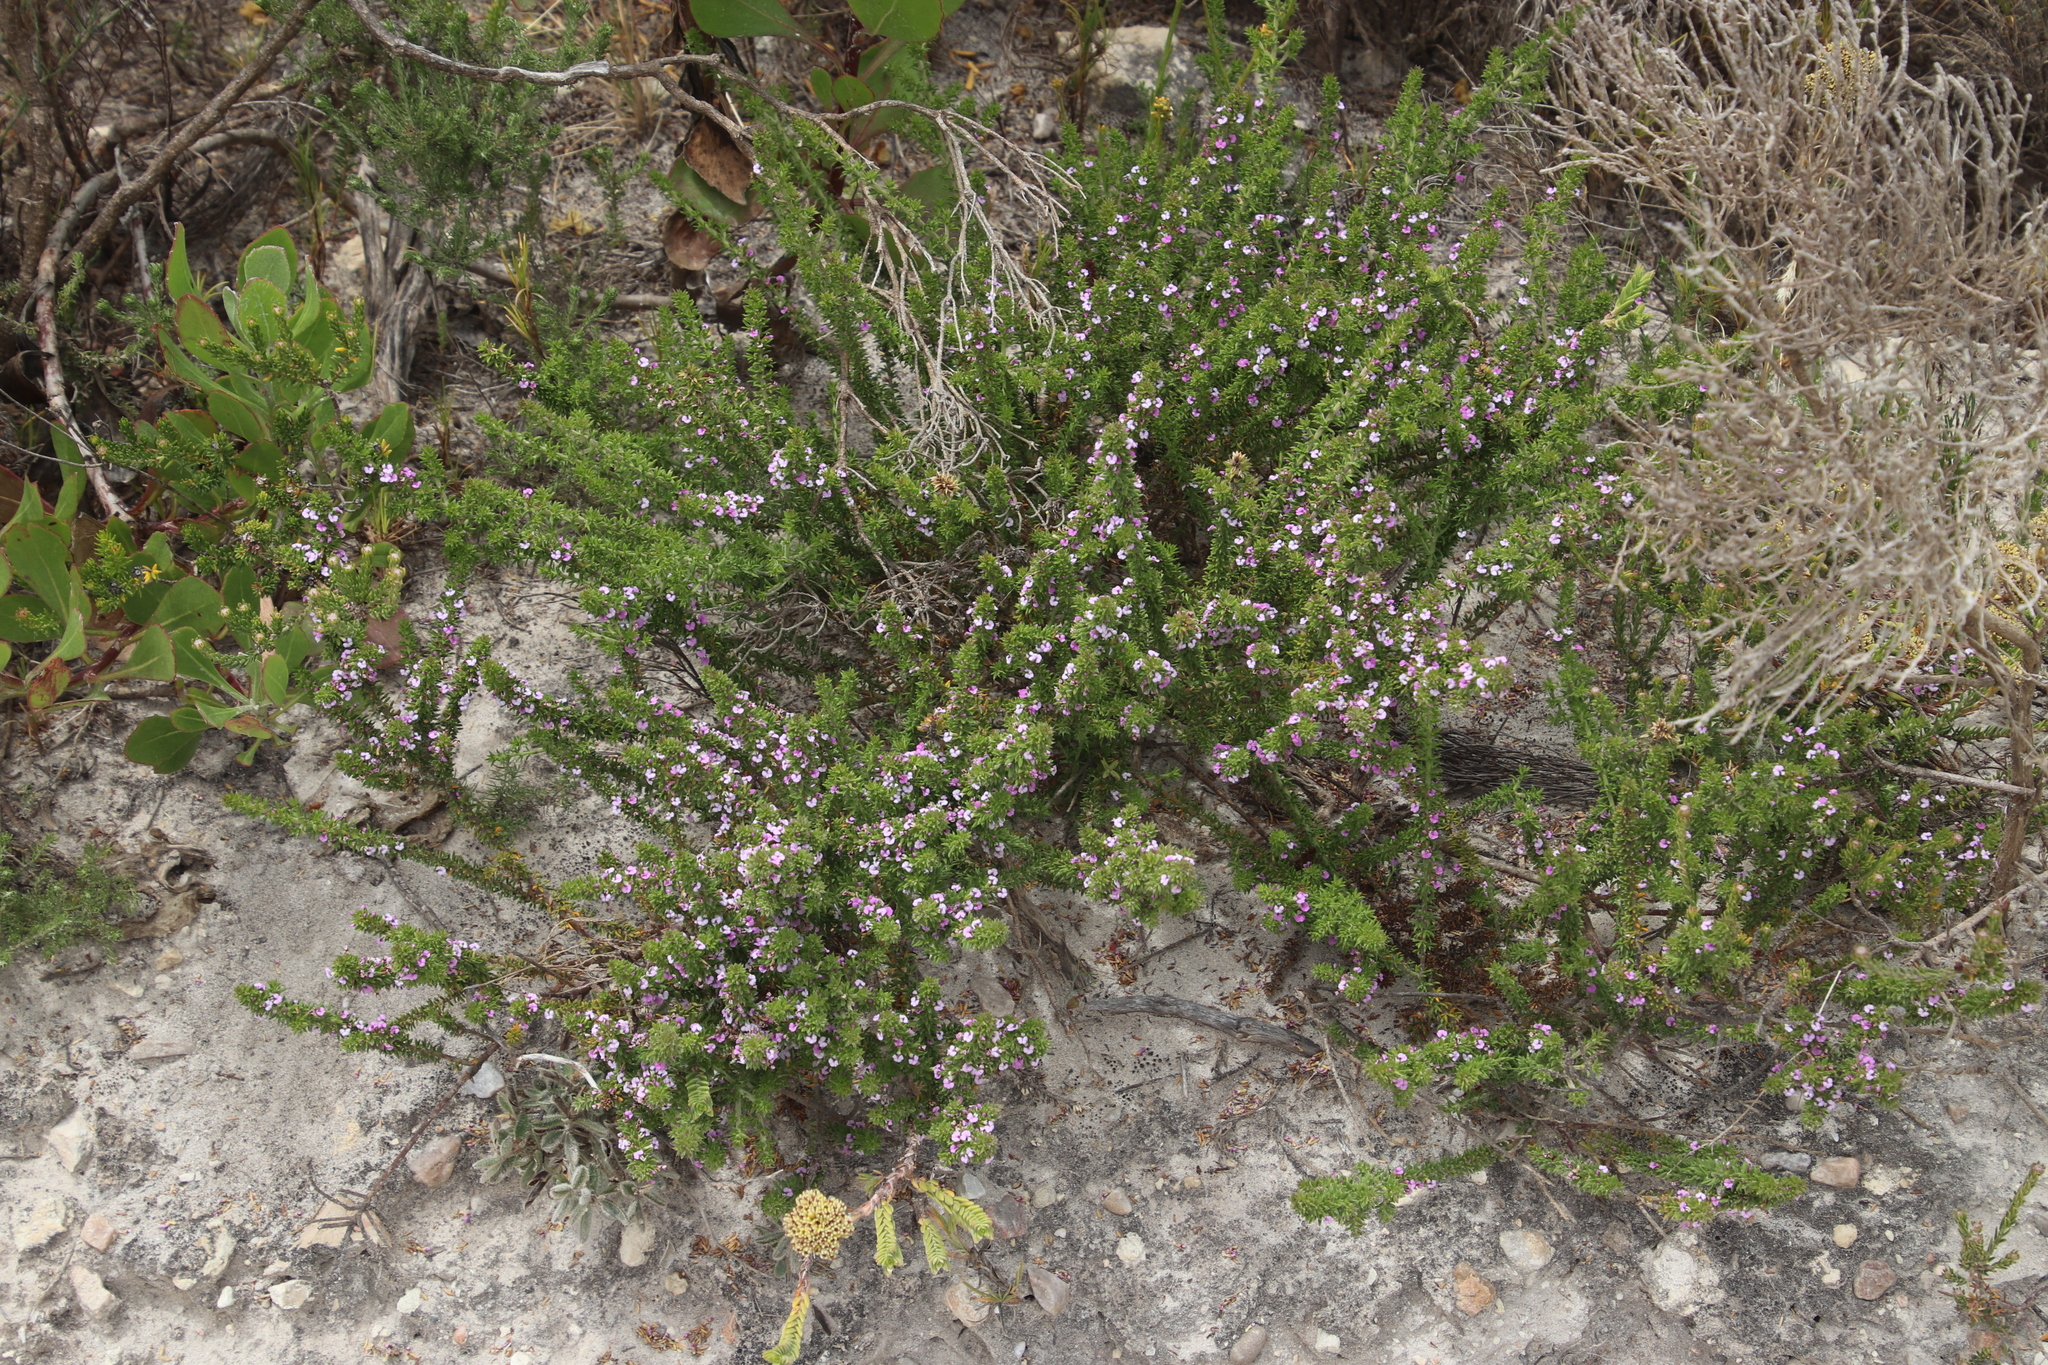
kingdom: Plantae
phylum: Tracheophyta
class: Magnoliopsida
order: Fabales
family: Polygalaceae
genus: Muraltia
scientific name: Muraltia satureioides
